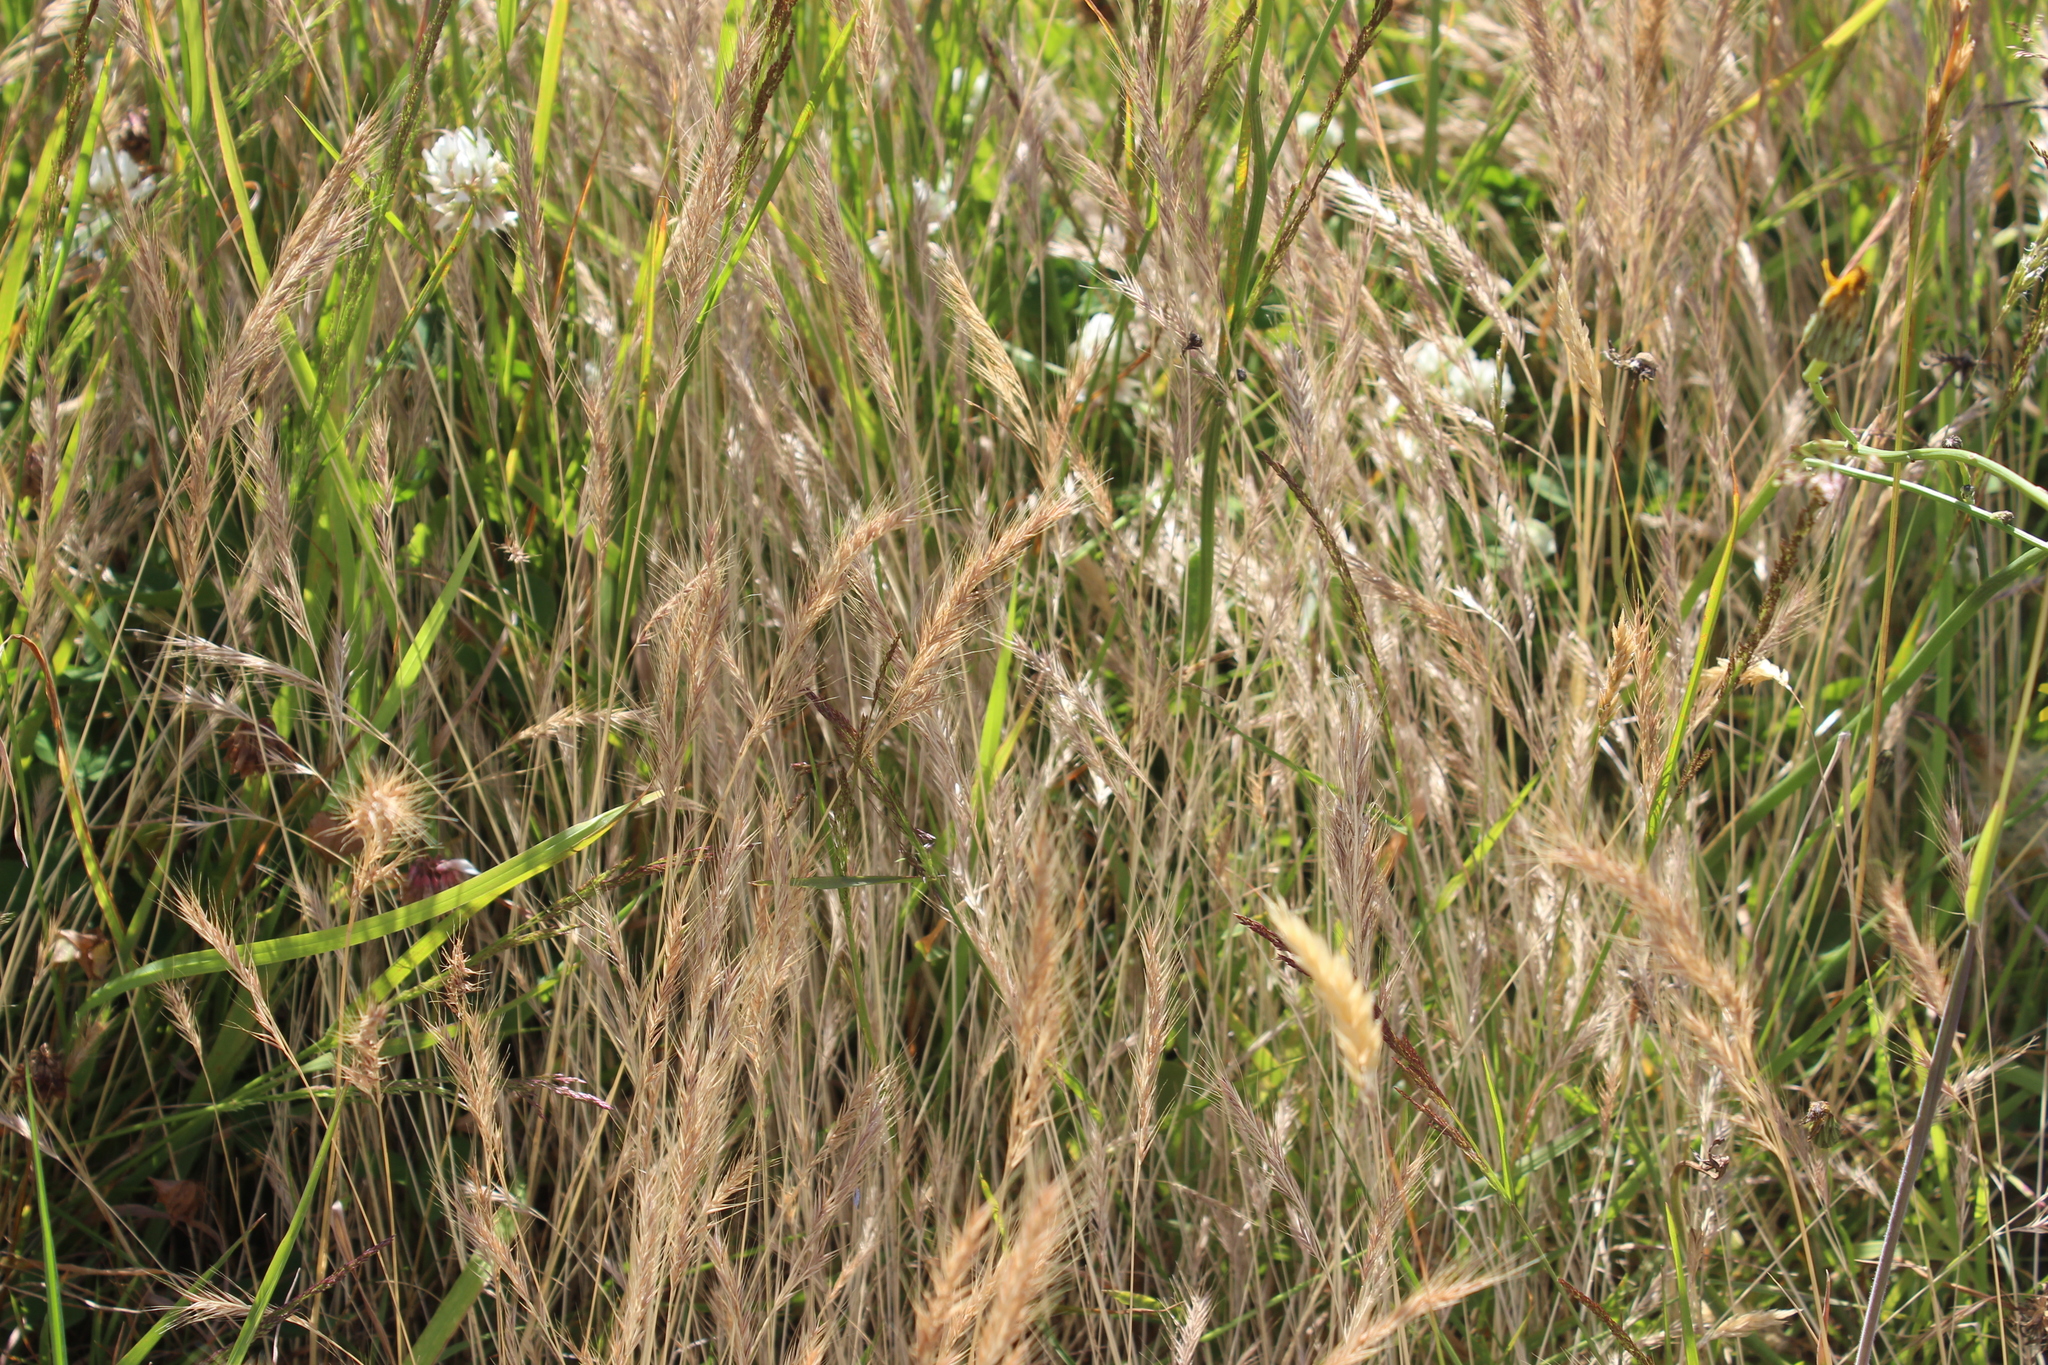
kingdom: Plantae
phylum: Tracheophyta
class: Liliopsida
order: Poales
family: Poaceae
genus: Hordeum
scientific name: Hordeum murinum
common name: Wall barley
